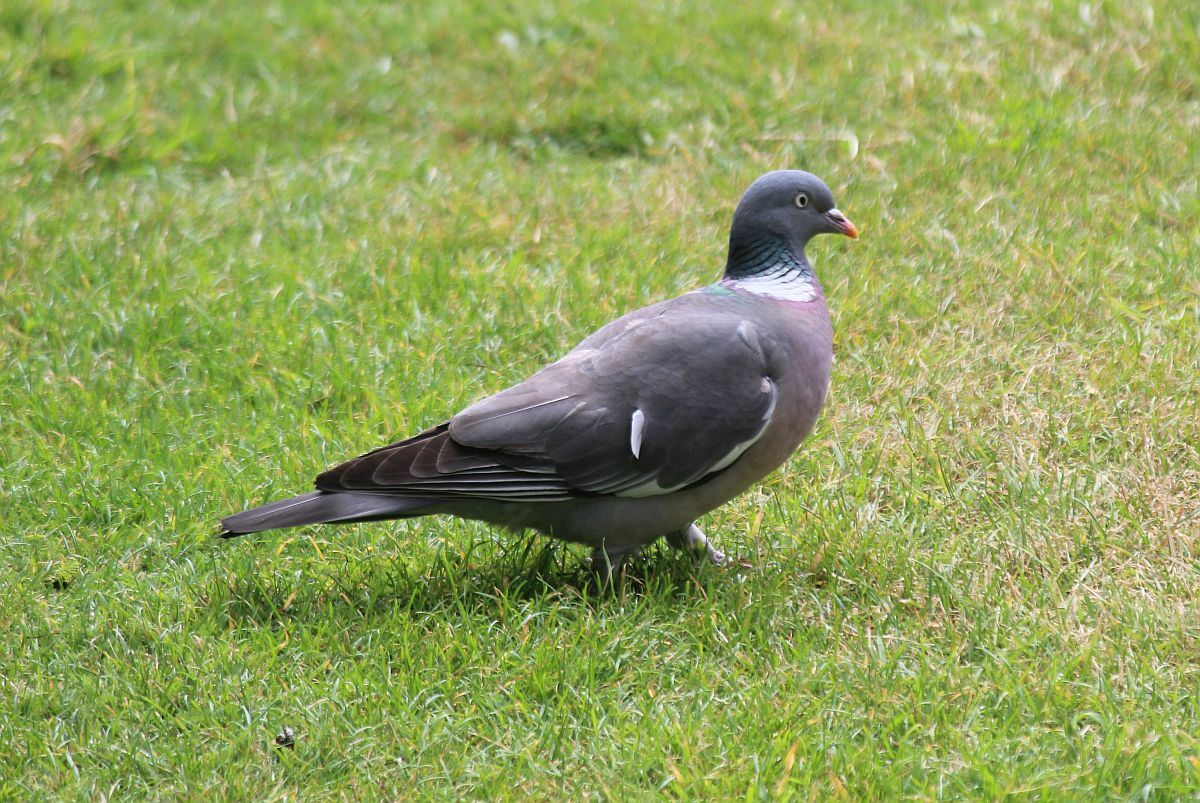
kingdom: Animalia
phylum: Chordata
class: Aves
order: Columbiformes
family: Columbidae
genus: Columba
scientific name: Columba palumbus
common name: Common wood pigeon
